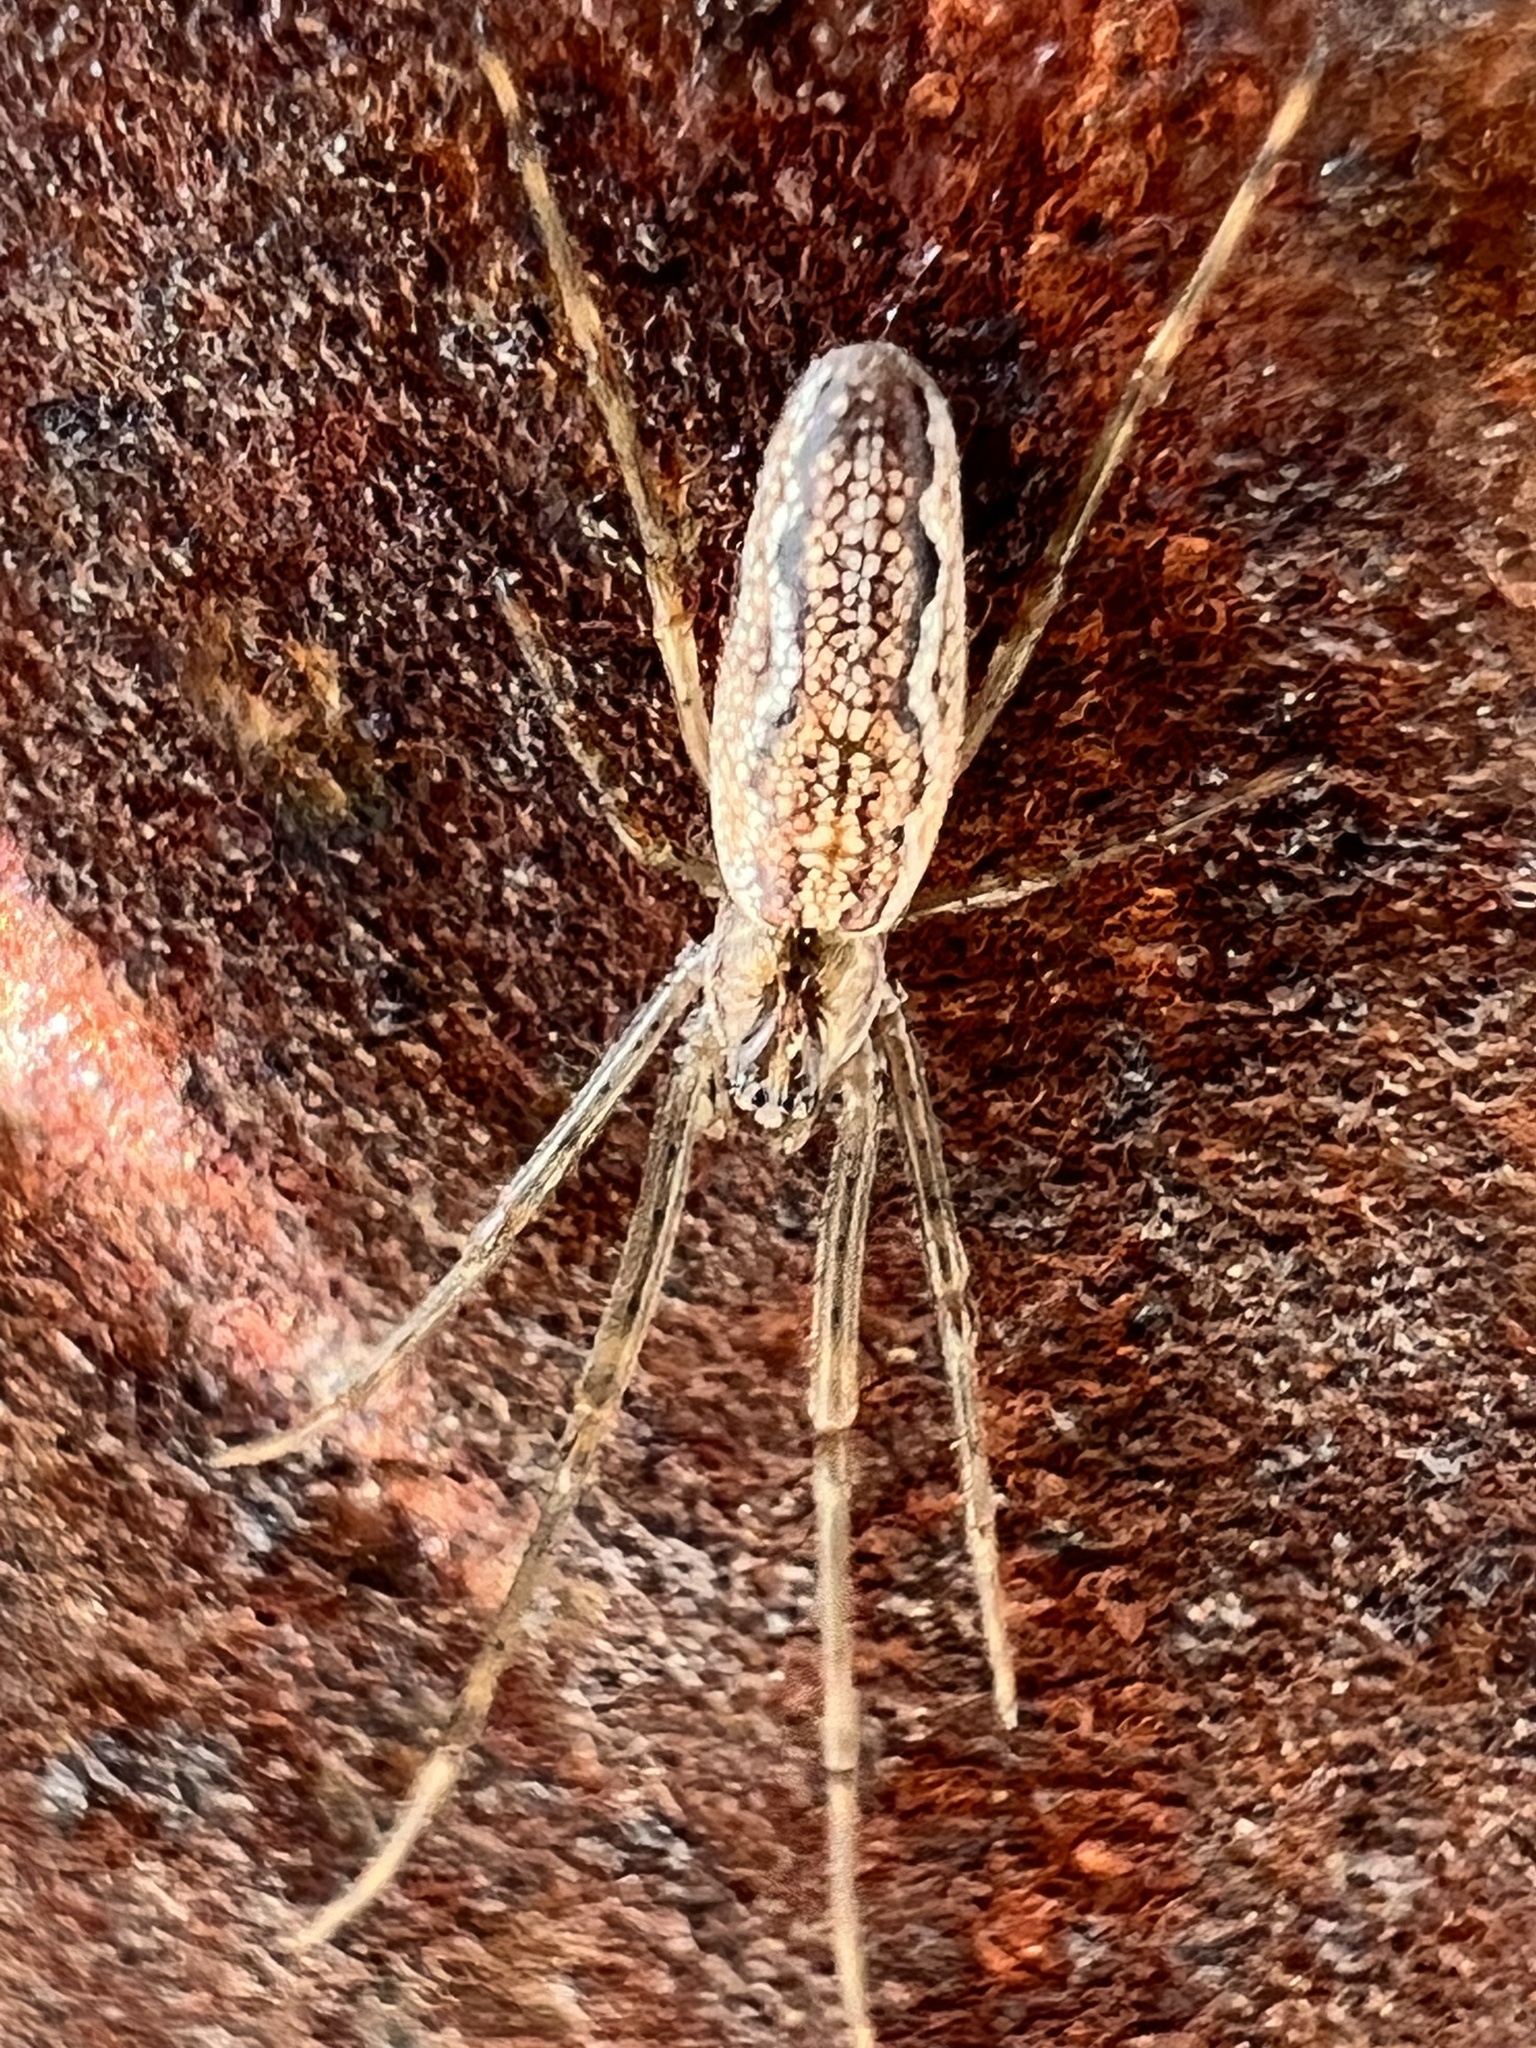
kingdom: Animalia
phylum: Arthropoda
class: Arachnida
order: Araneae
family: Tetragnathidae
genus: Tetragnatha
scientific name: Tetragnatha versicolor
